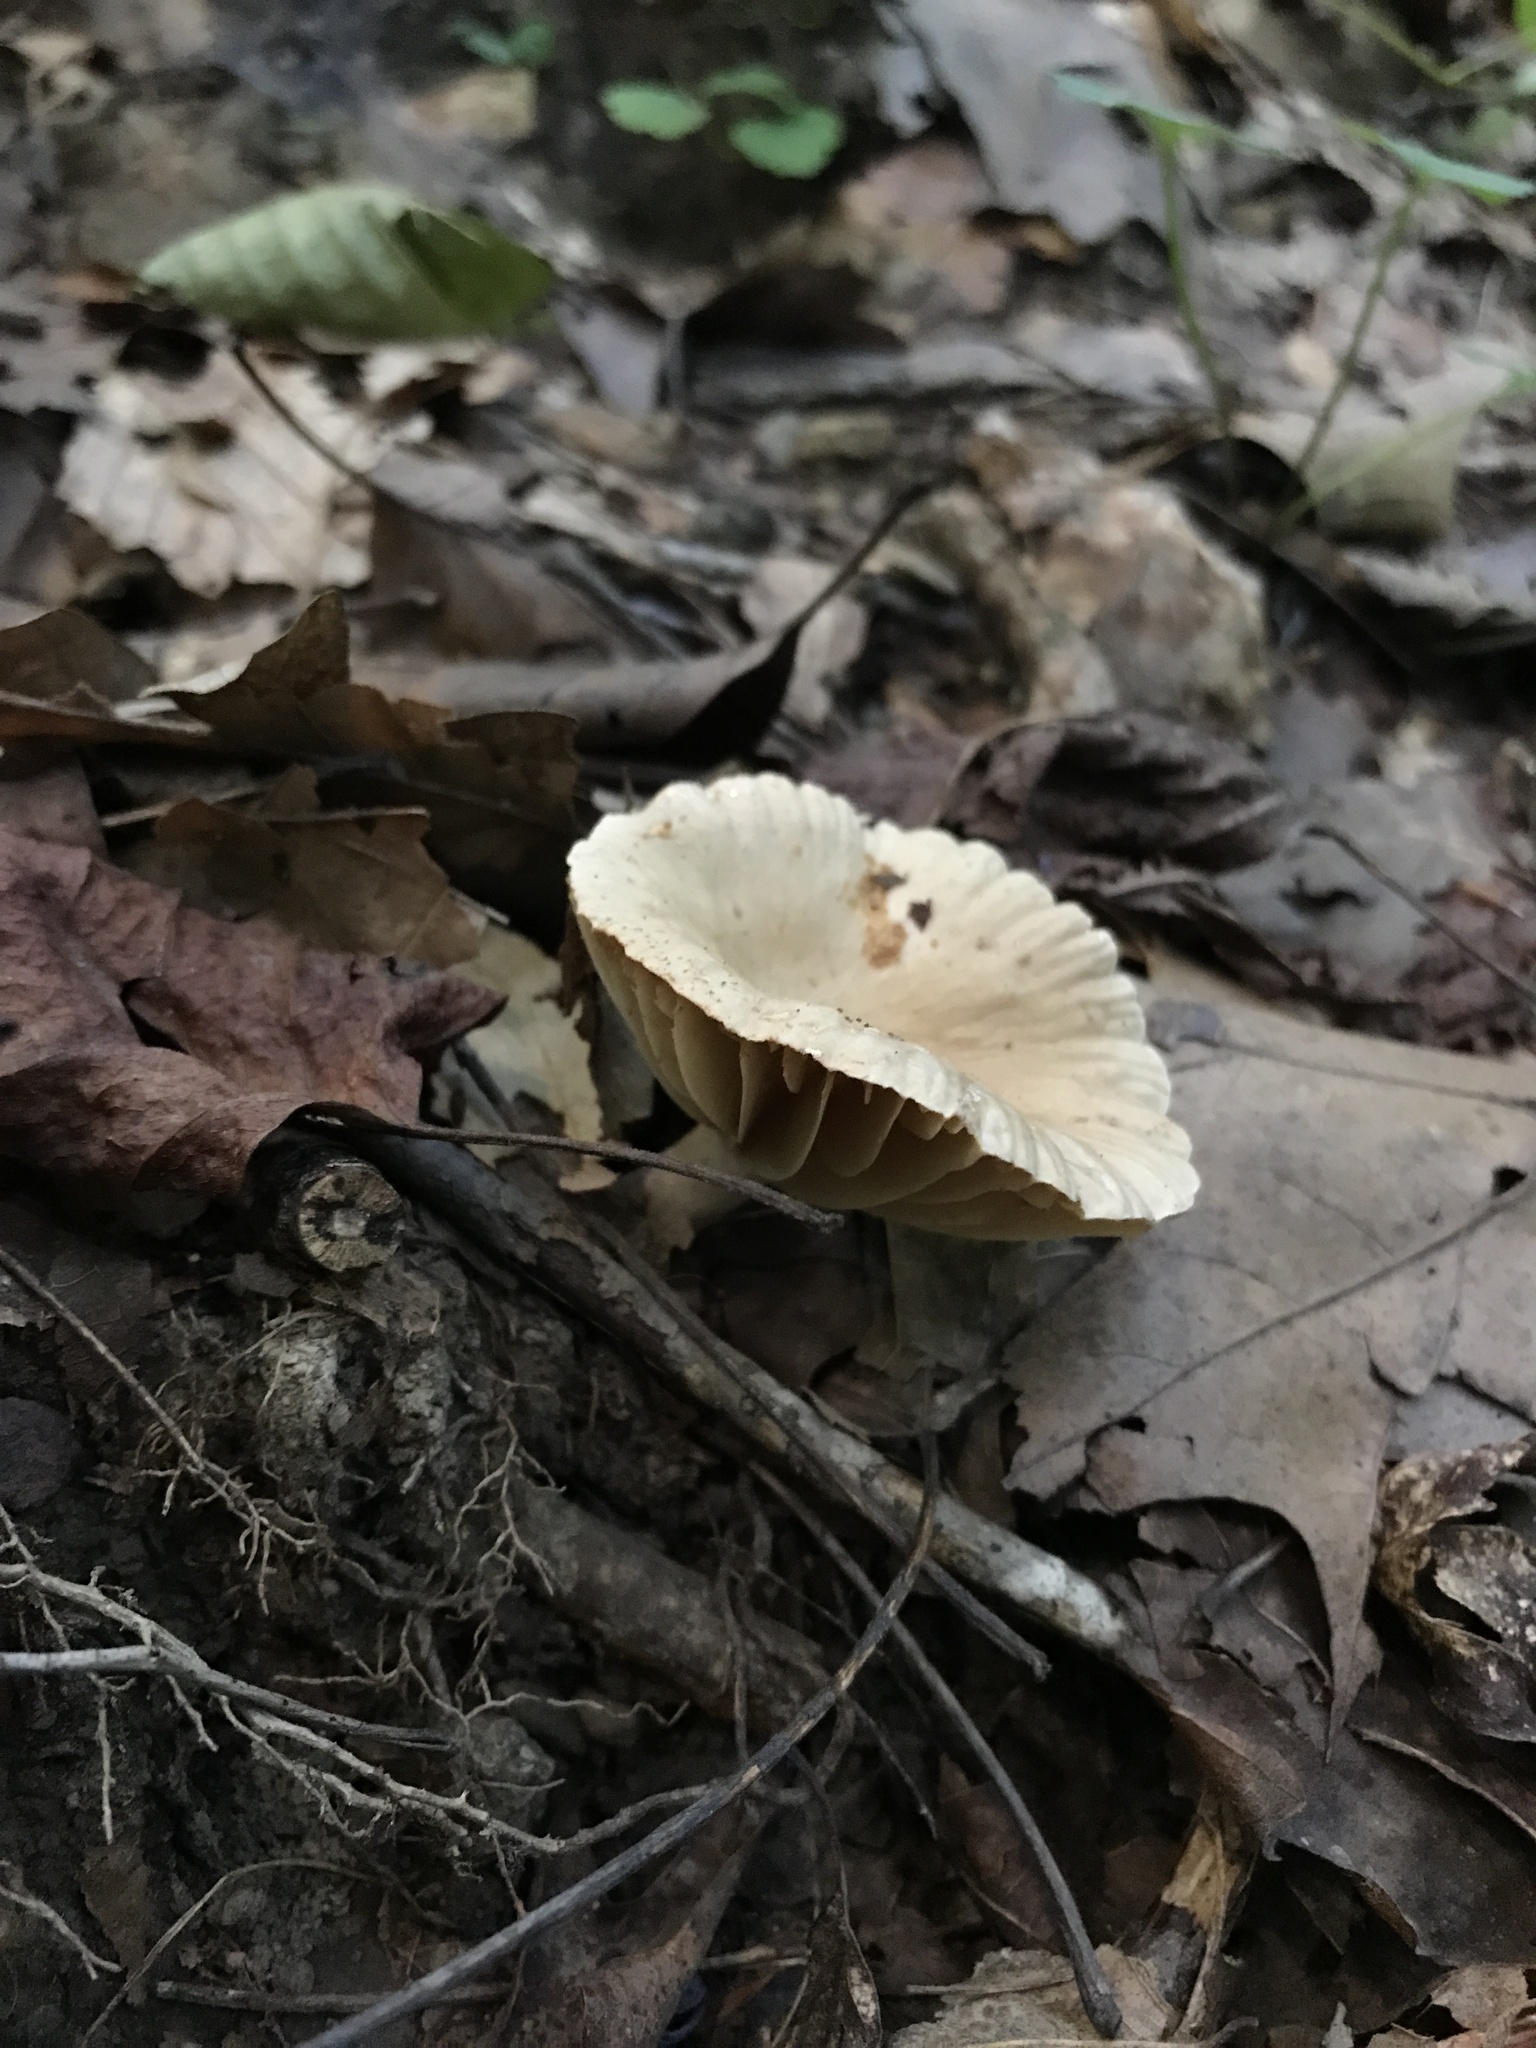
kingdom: Fungi
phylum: Basidiomycota
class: Agaricomycetes
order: Russulales
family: Russulaceae
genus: Lactarius
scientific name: Lactarius subplinthogalus
